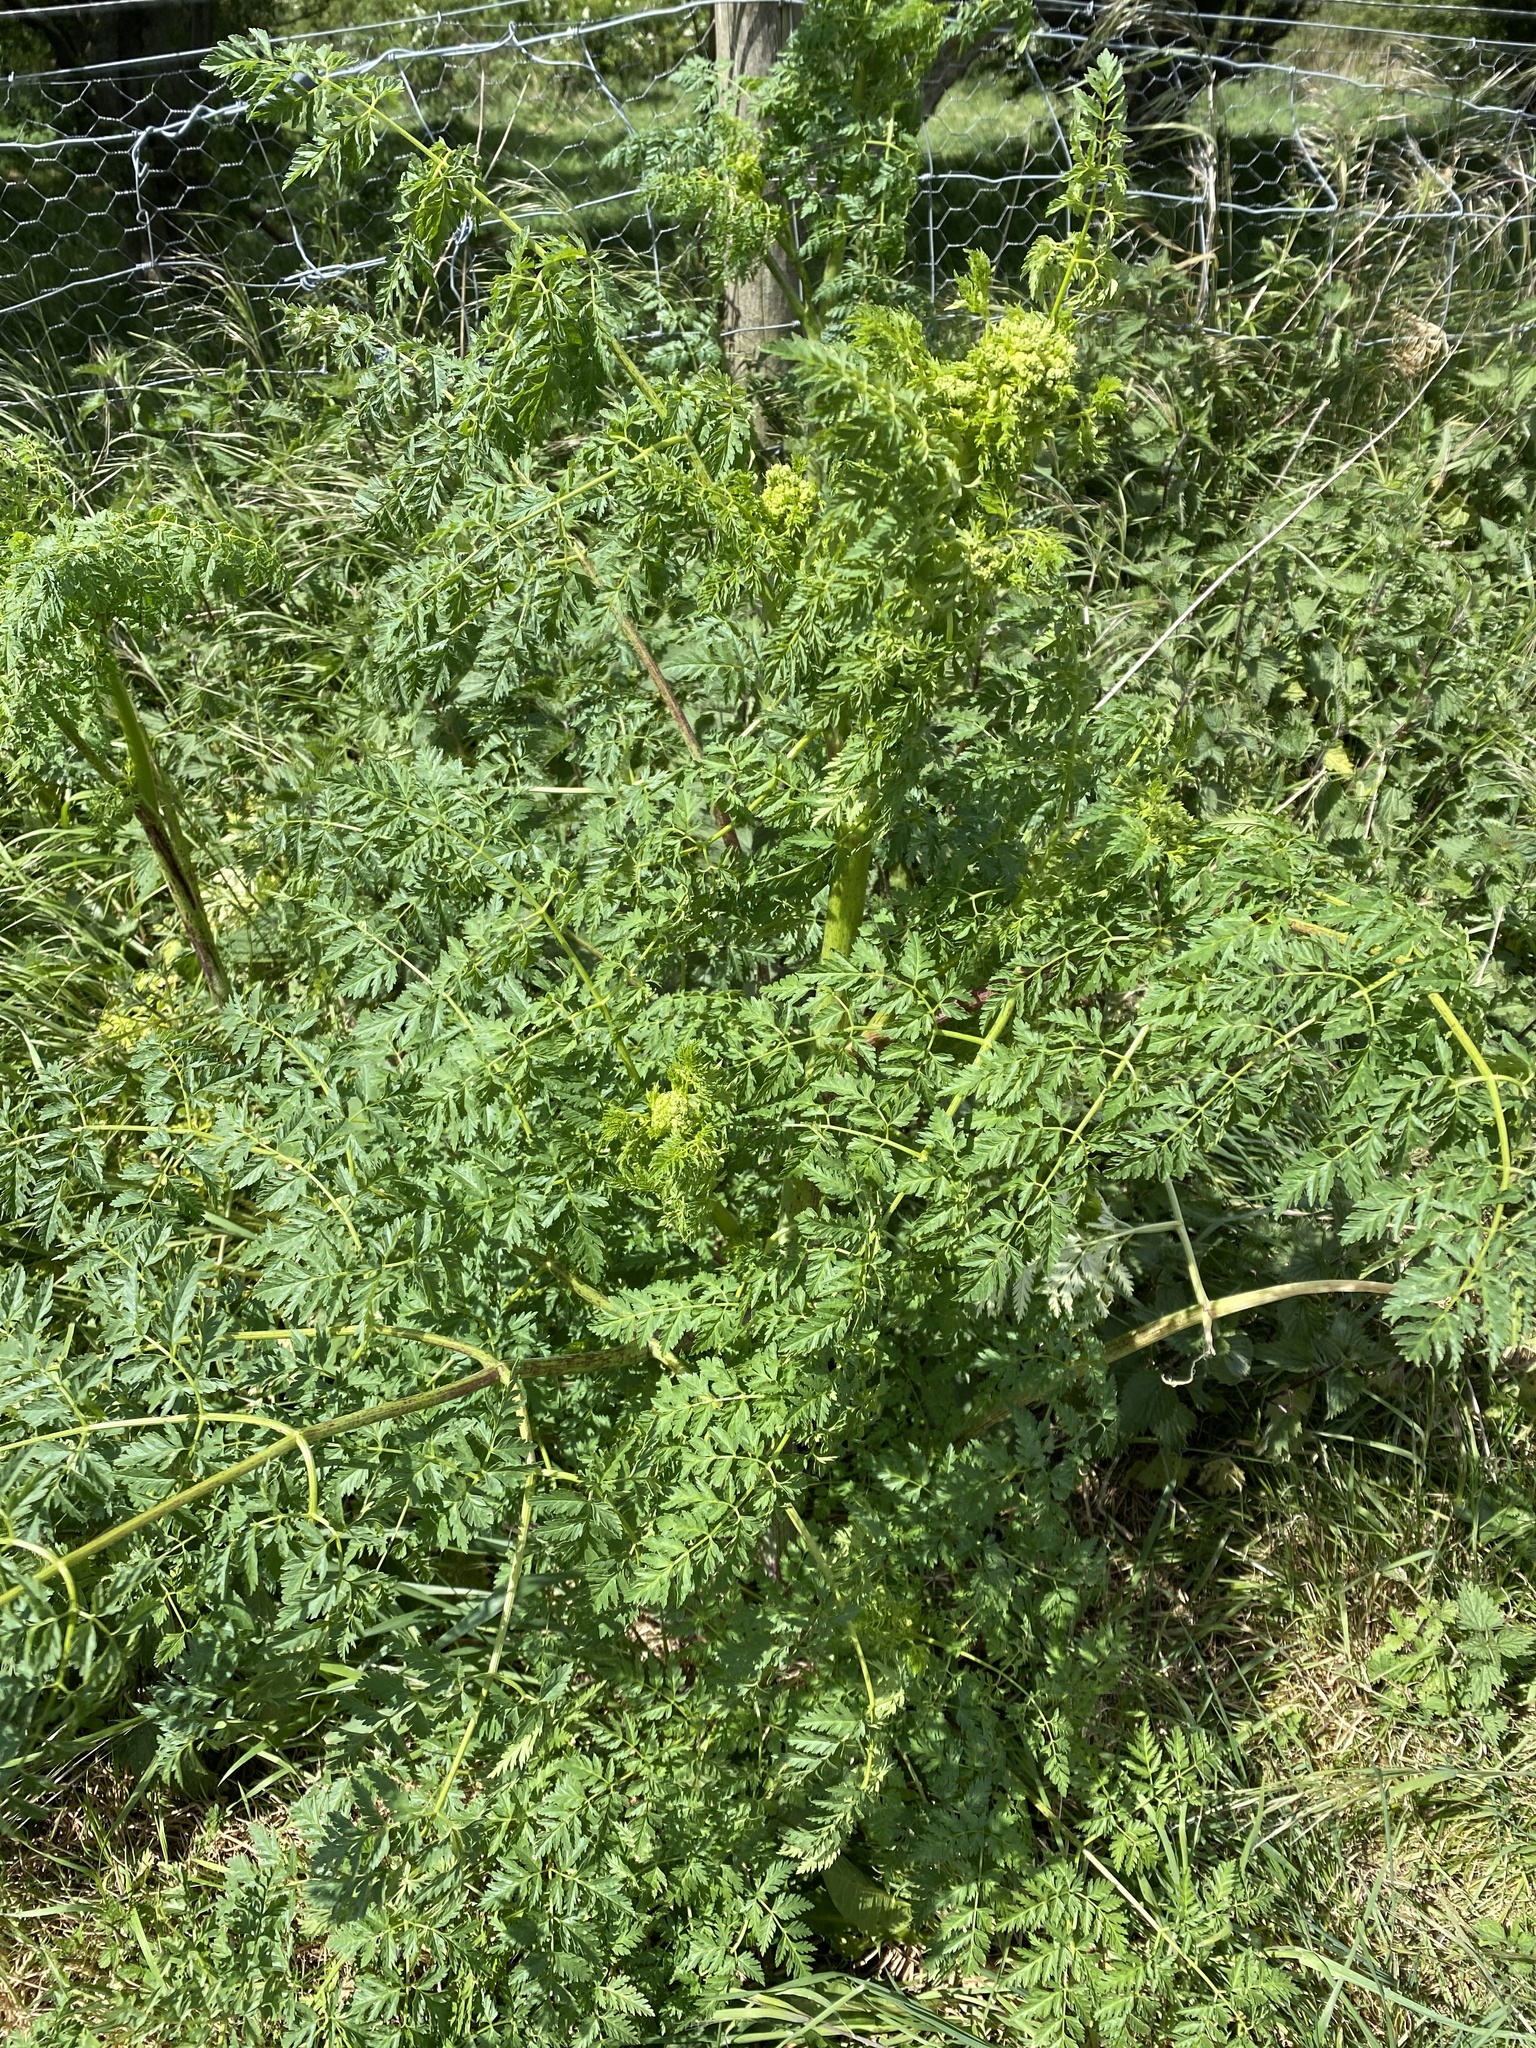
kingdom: Plantae
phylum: Tracheophyta
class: Magnoliopsida
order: Apiales
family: Apiaceae
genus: Conium
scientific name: Conium maculatum
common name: Hemlock
